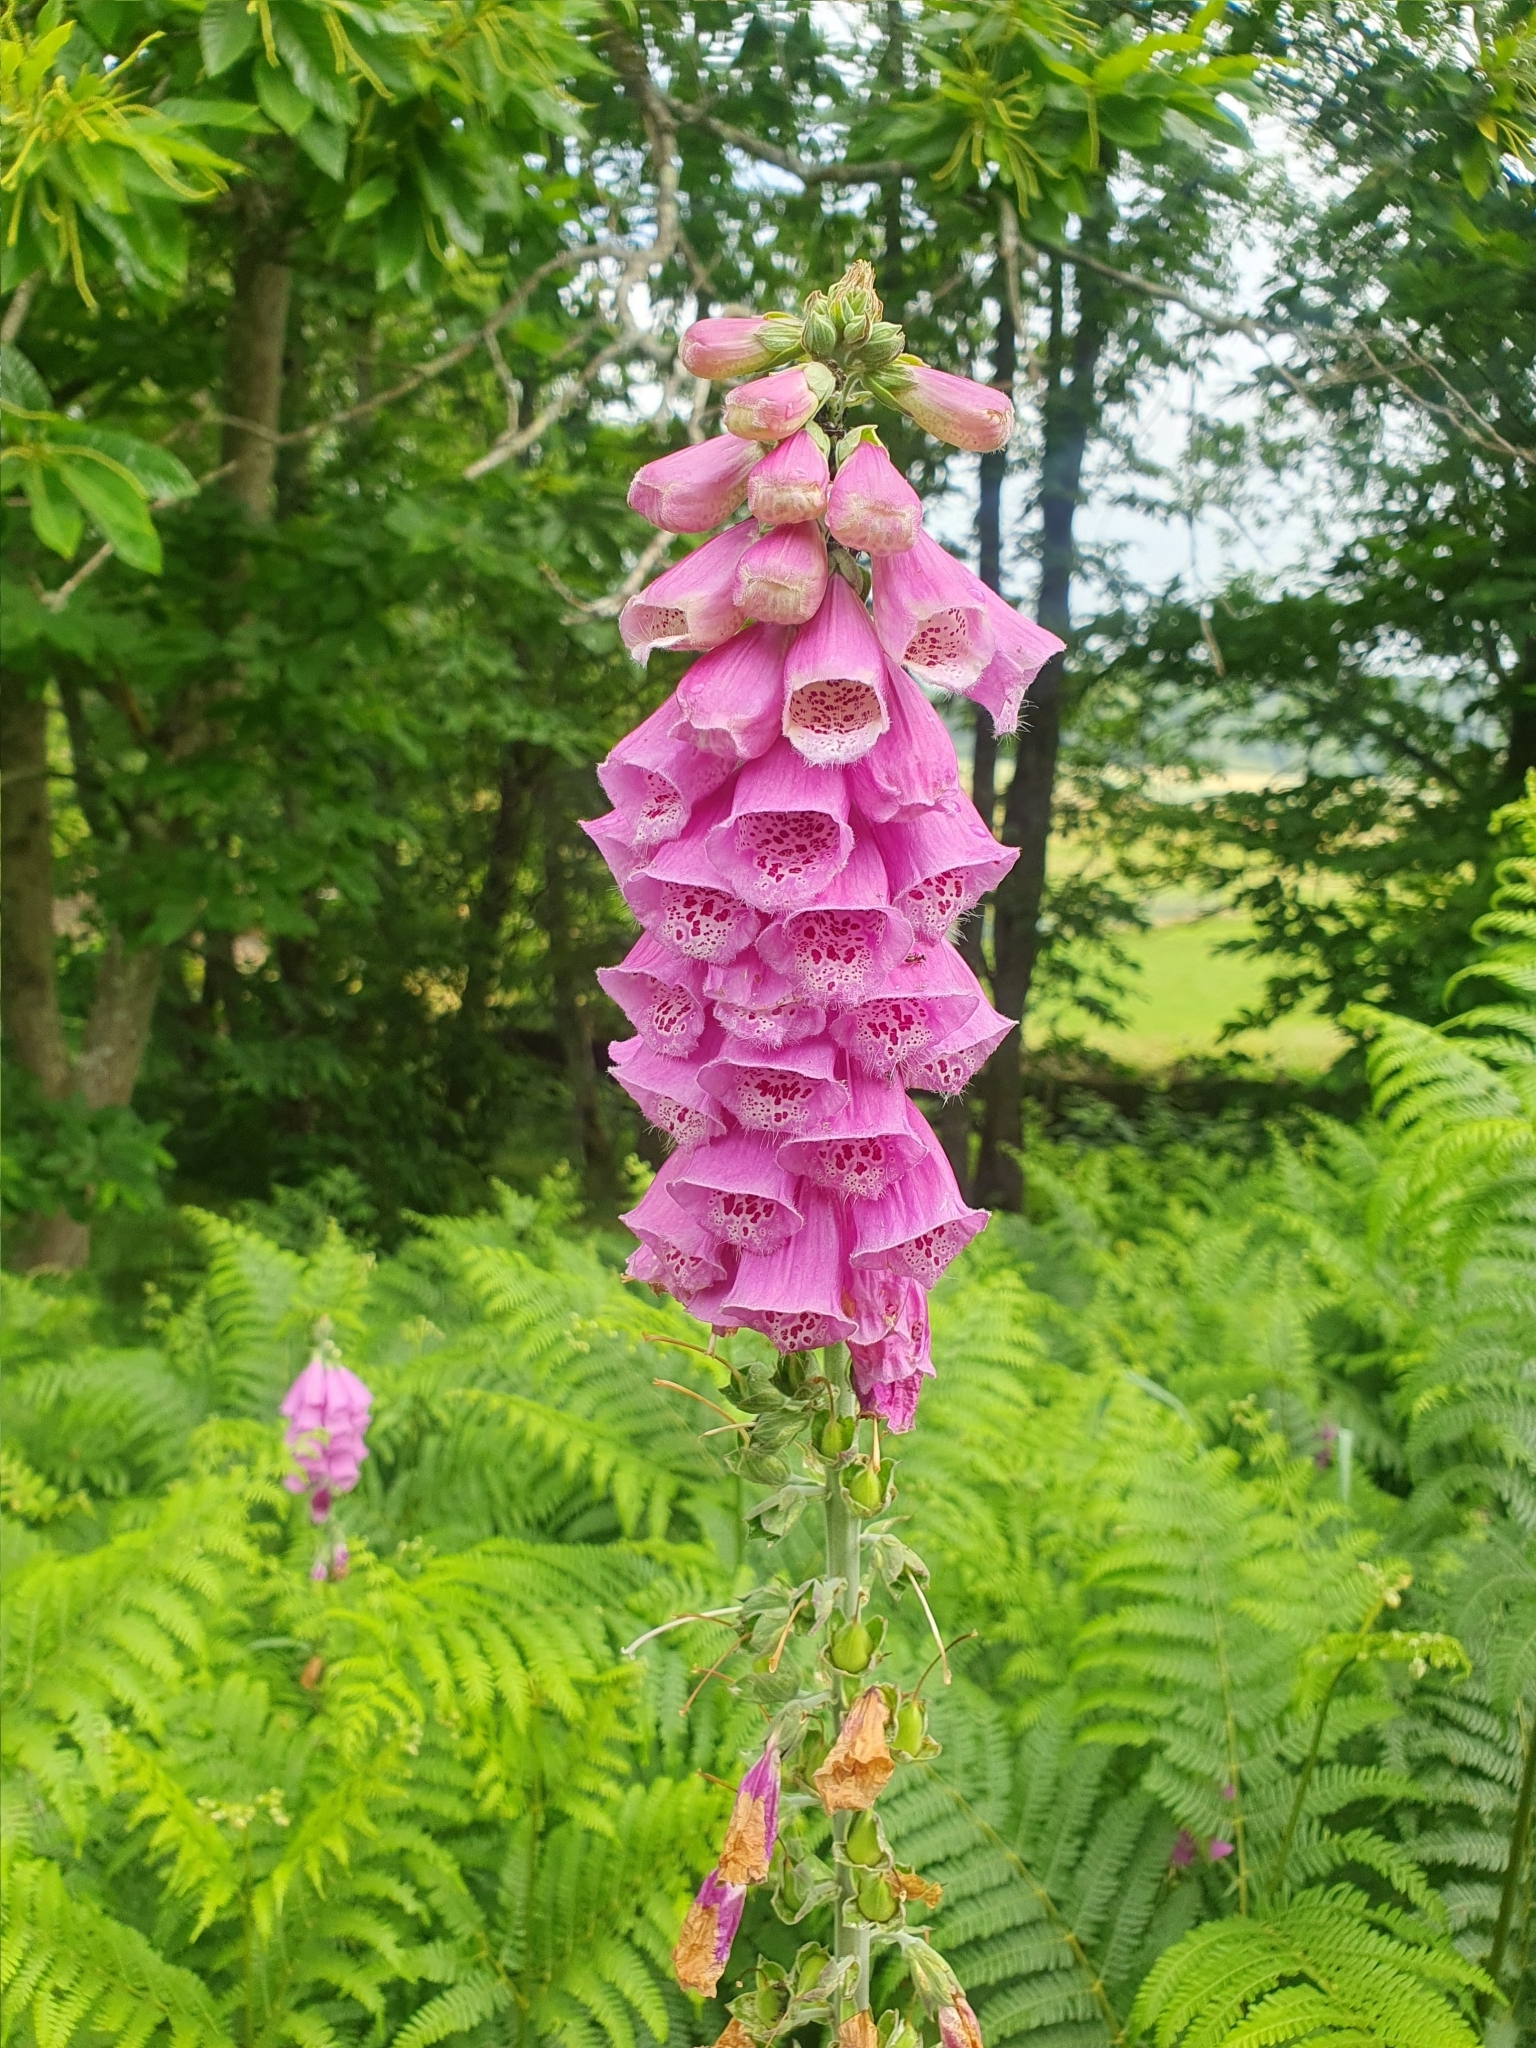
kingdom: Plantae
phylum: Tracheophyta
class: Magnoliopsida
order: Lamiales
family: Plantaginaceae
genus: Digitalis
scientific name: Digitalis purpurea
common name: Foxglove
